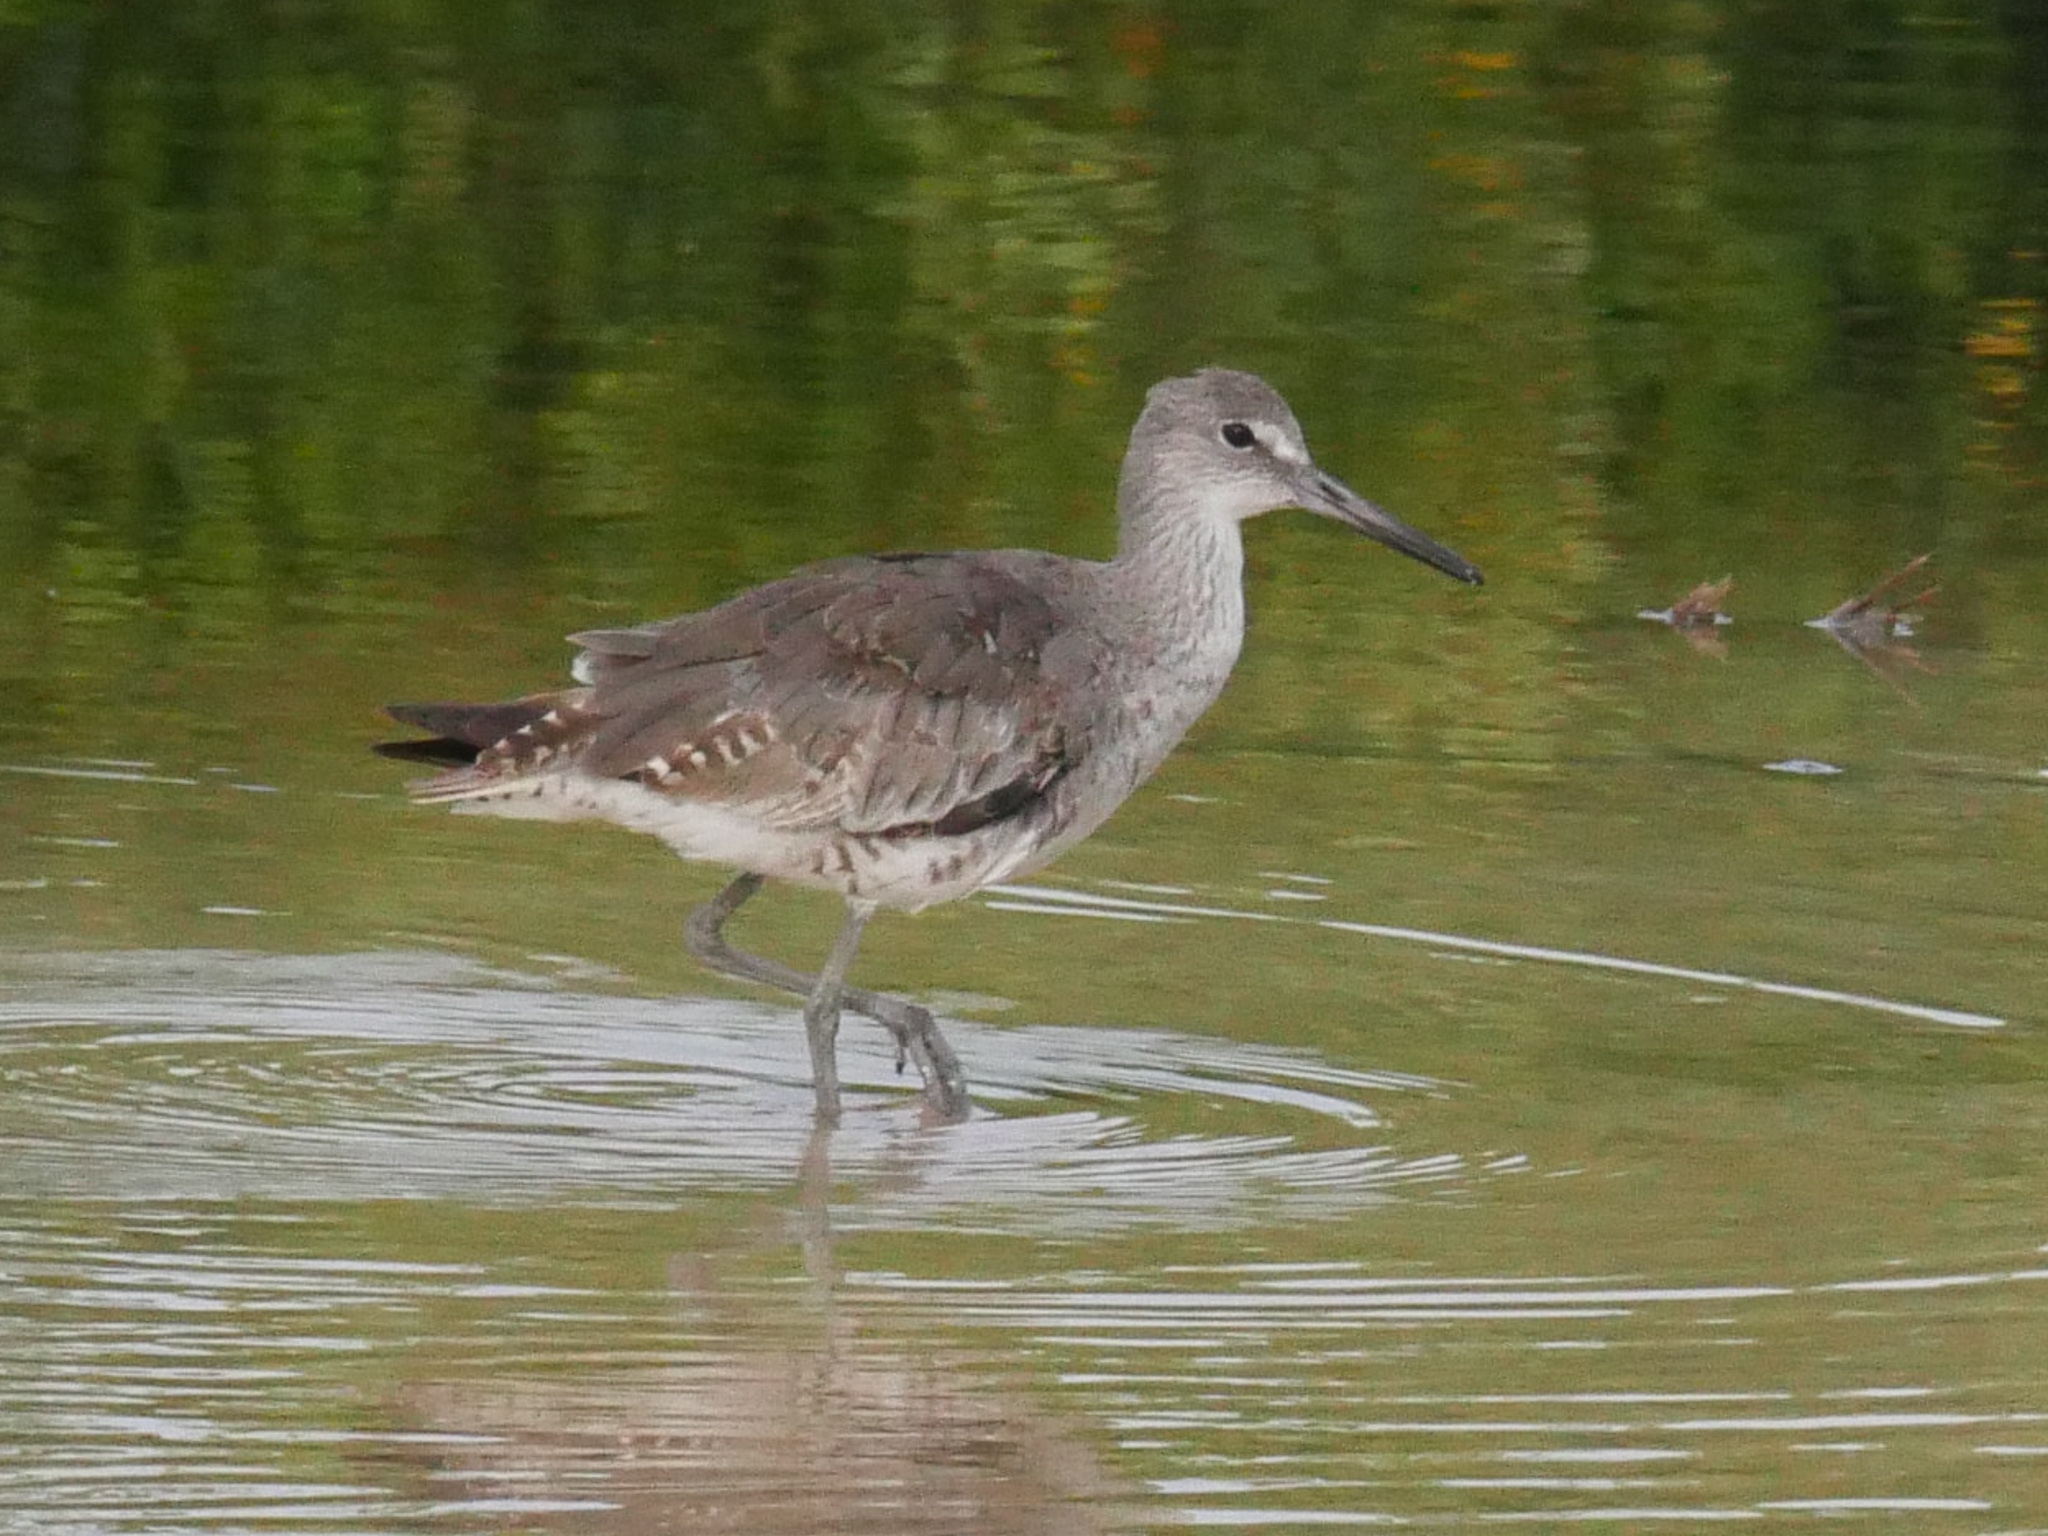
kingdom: Animalia
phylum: Chordata
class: Aves
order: Charadriiformes
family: Scolopacidae
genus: Tringa
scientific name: Tringa semipalmata
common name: Willet
